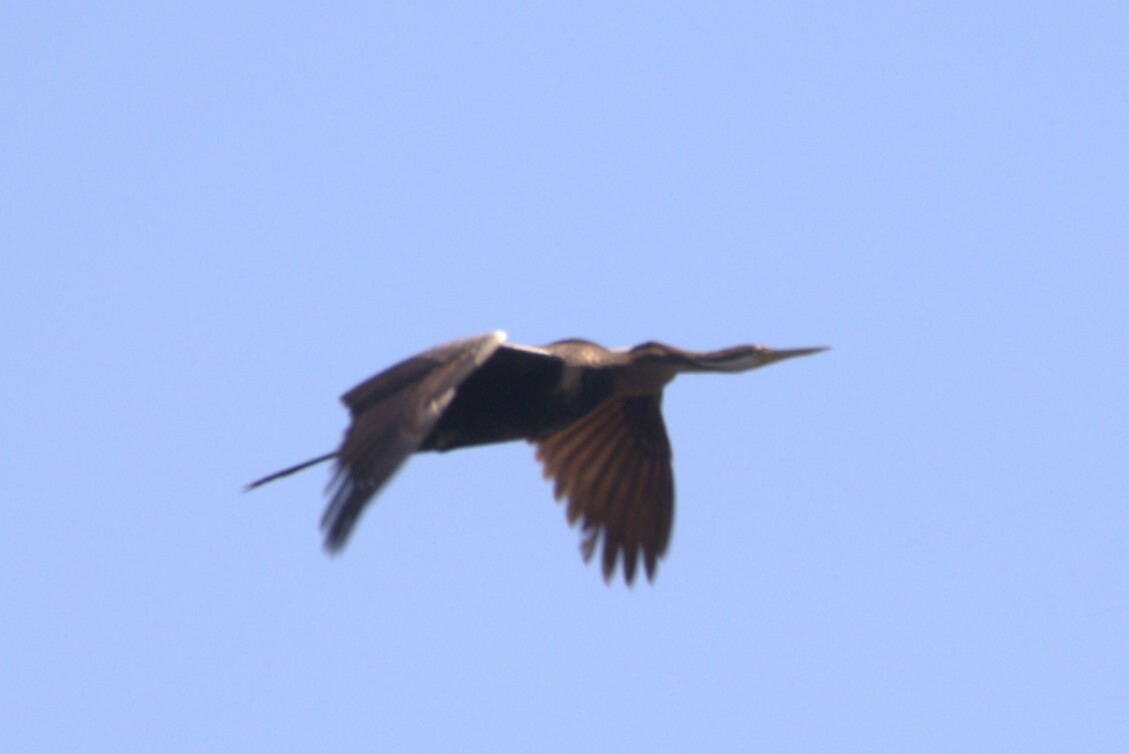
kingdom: Animalia
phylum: Chordata
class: Aves
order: Suliformes
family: Anhingidae
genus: Anhinga
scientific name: Anhinga novaehollandiae
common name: Australasian darter
